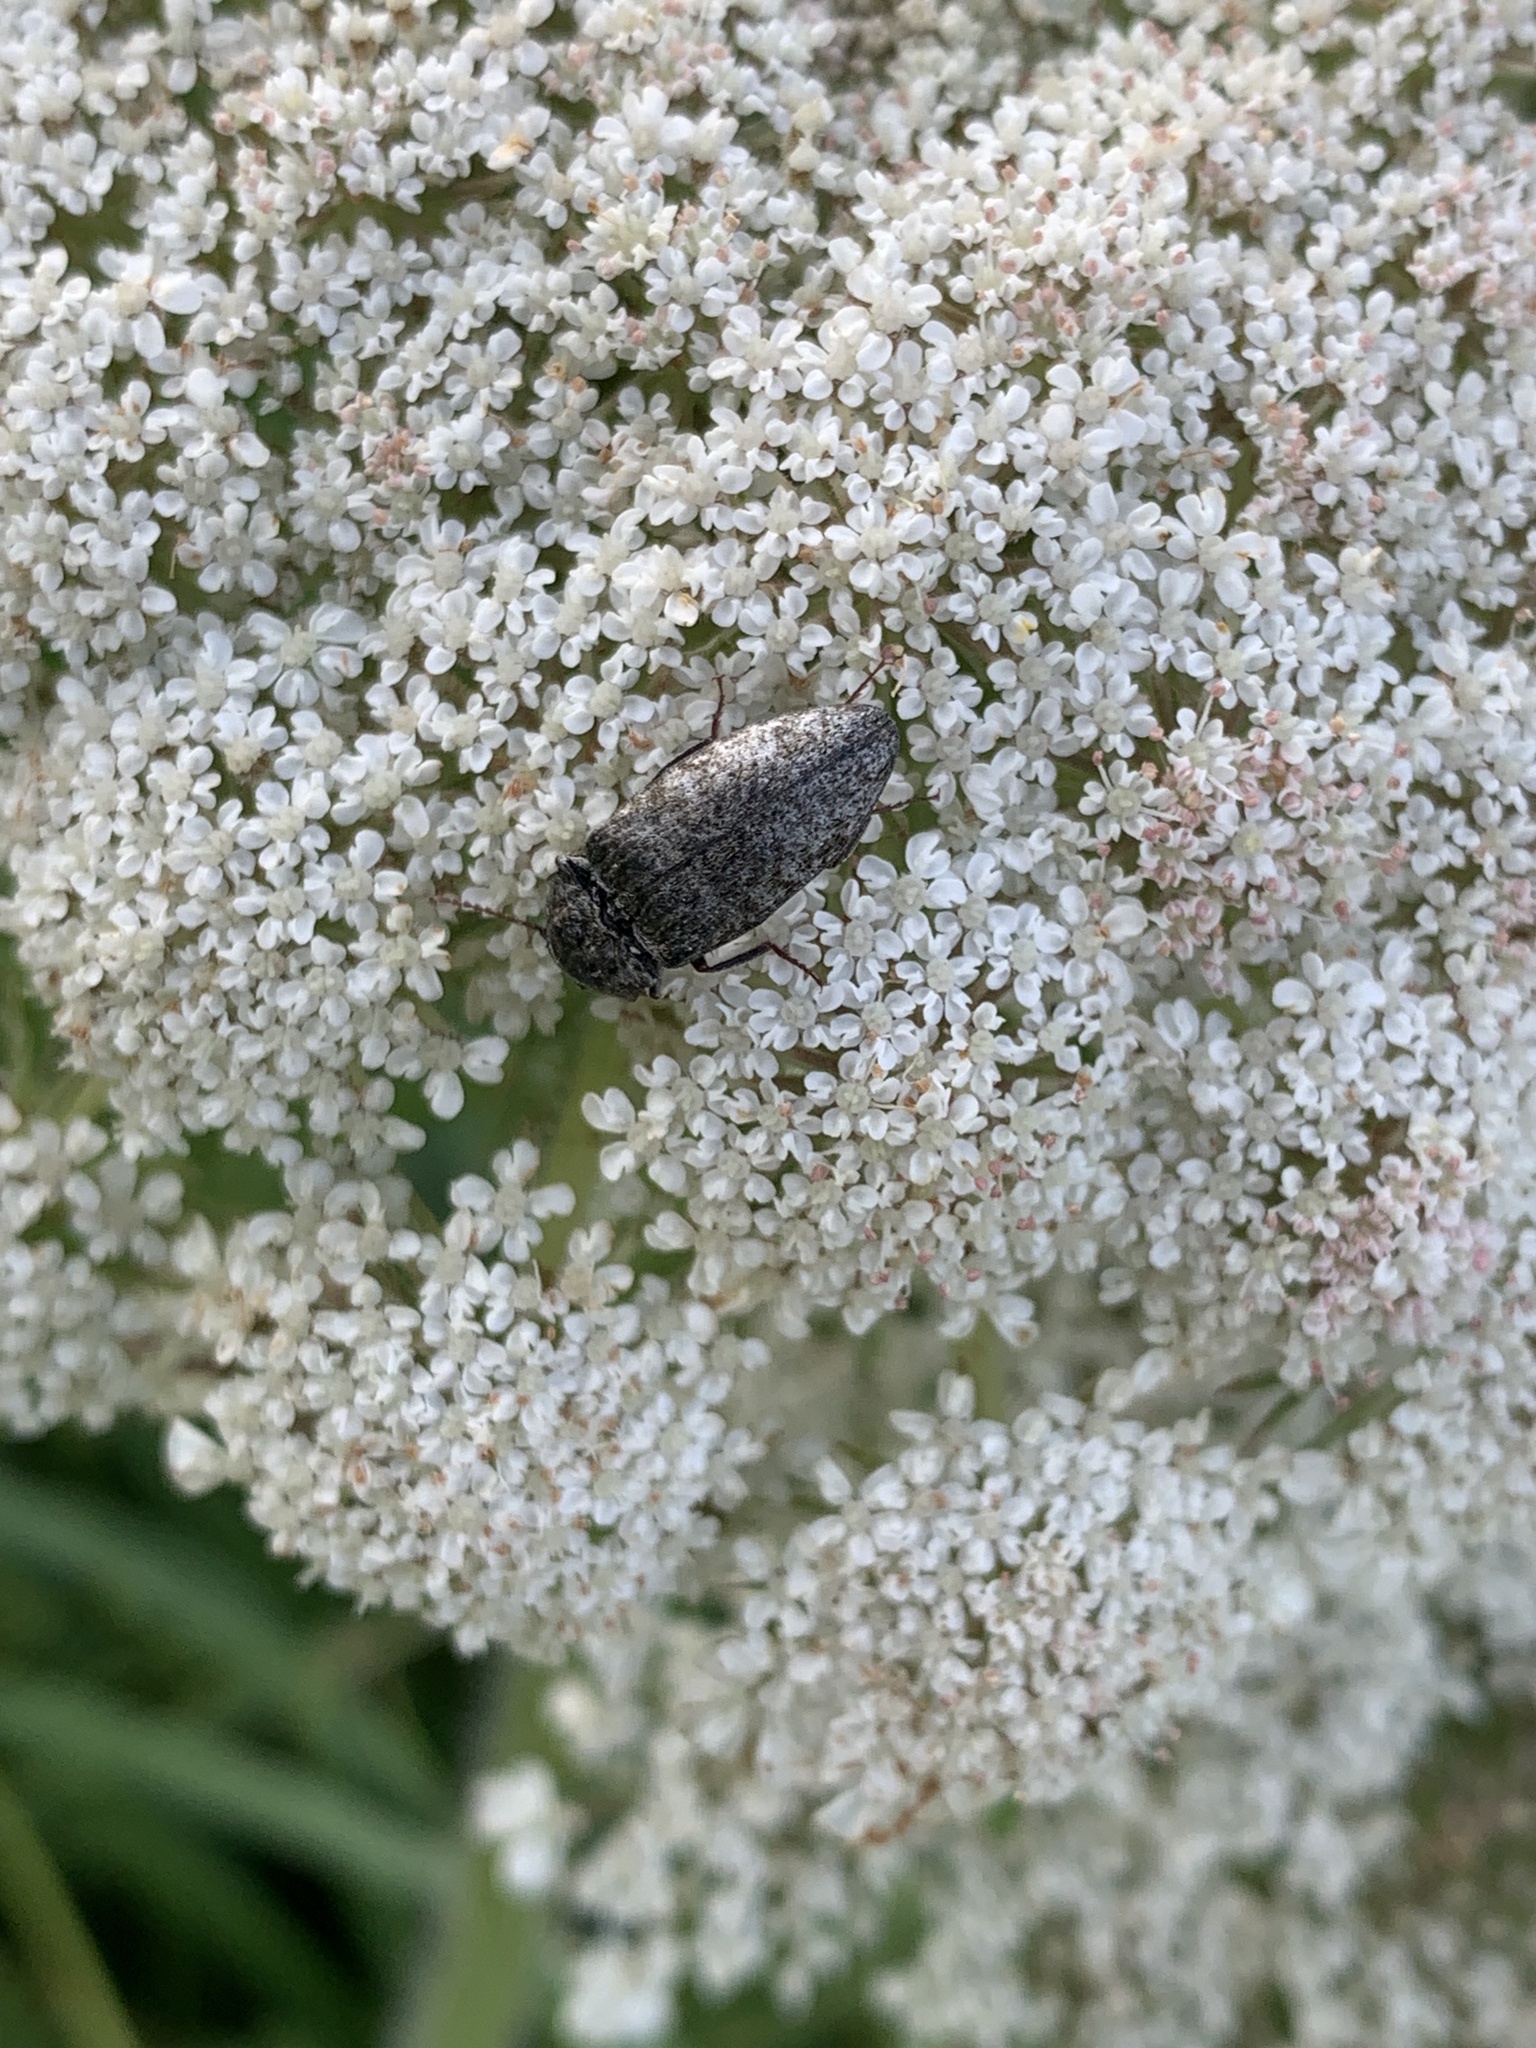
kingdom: Animalia
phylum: Arthropoda
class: Insecta
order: Coleoptera
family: Elateridae
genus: Agrypnus
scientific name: Agrypnus murinus
